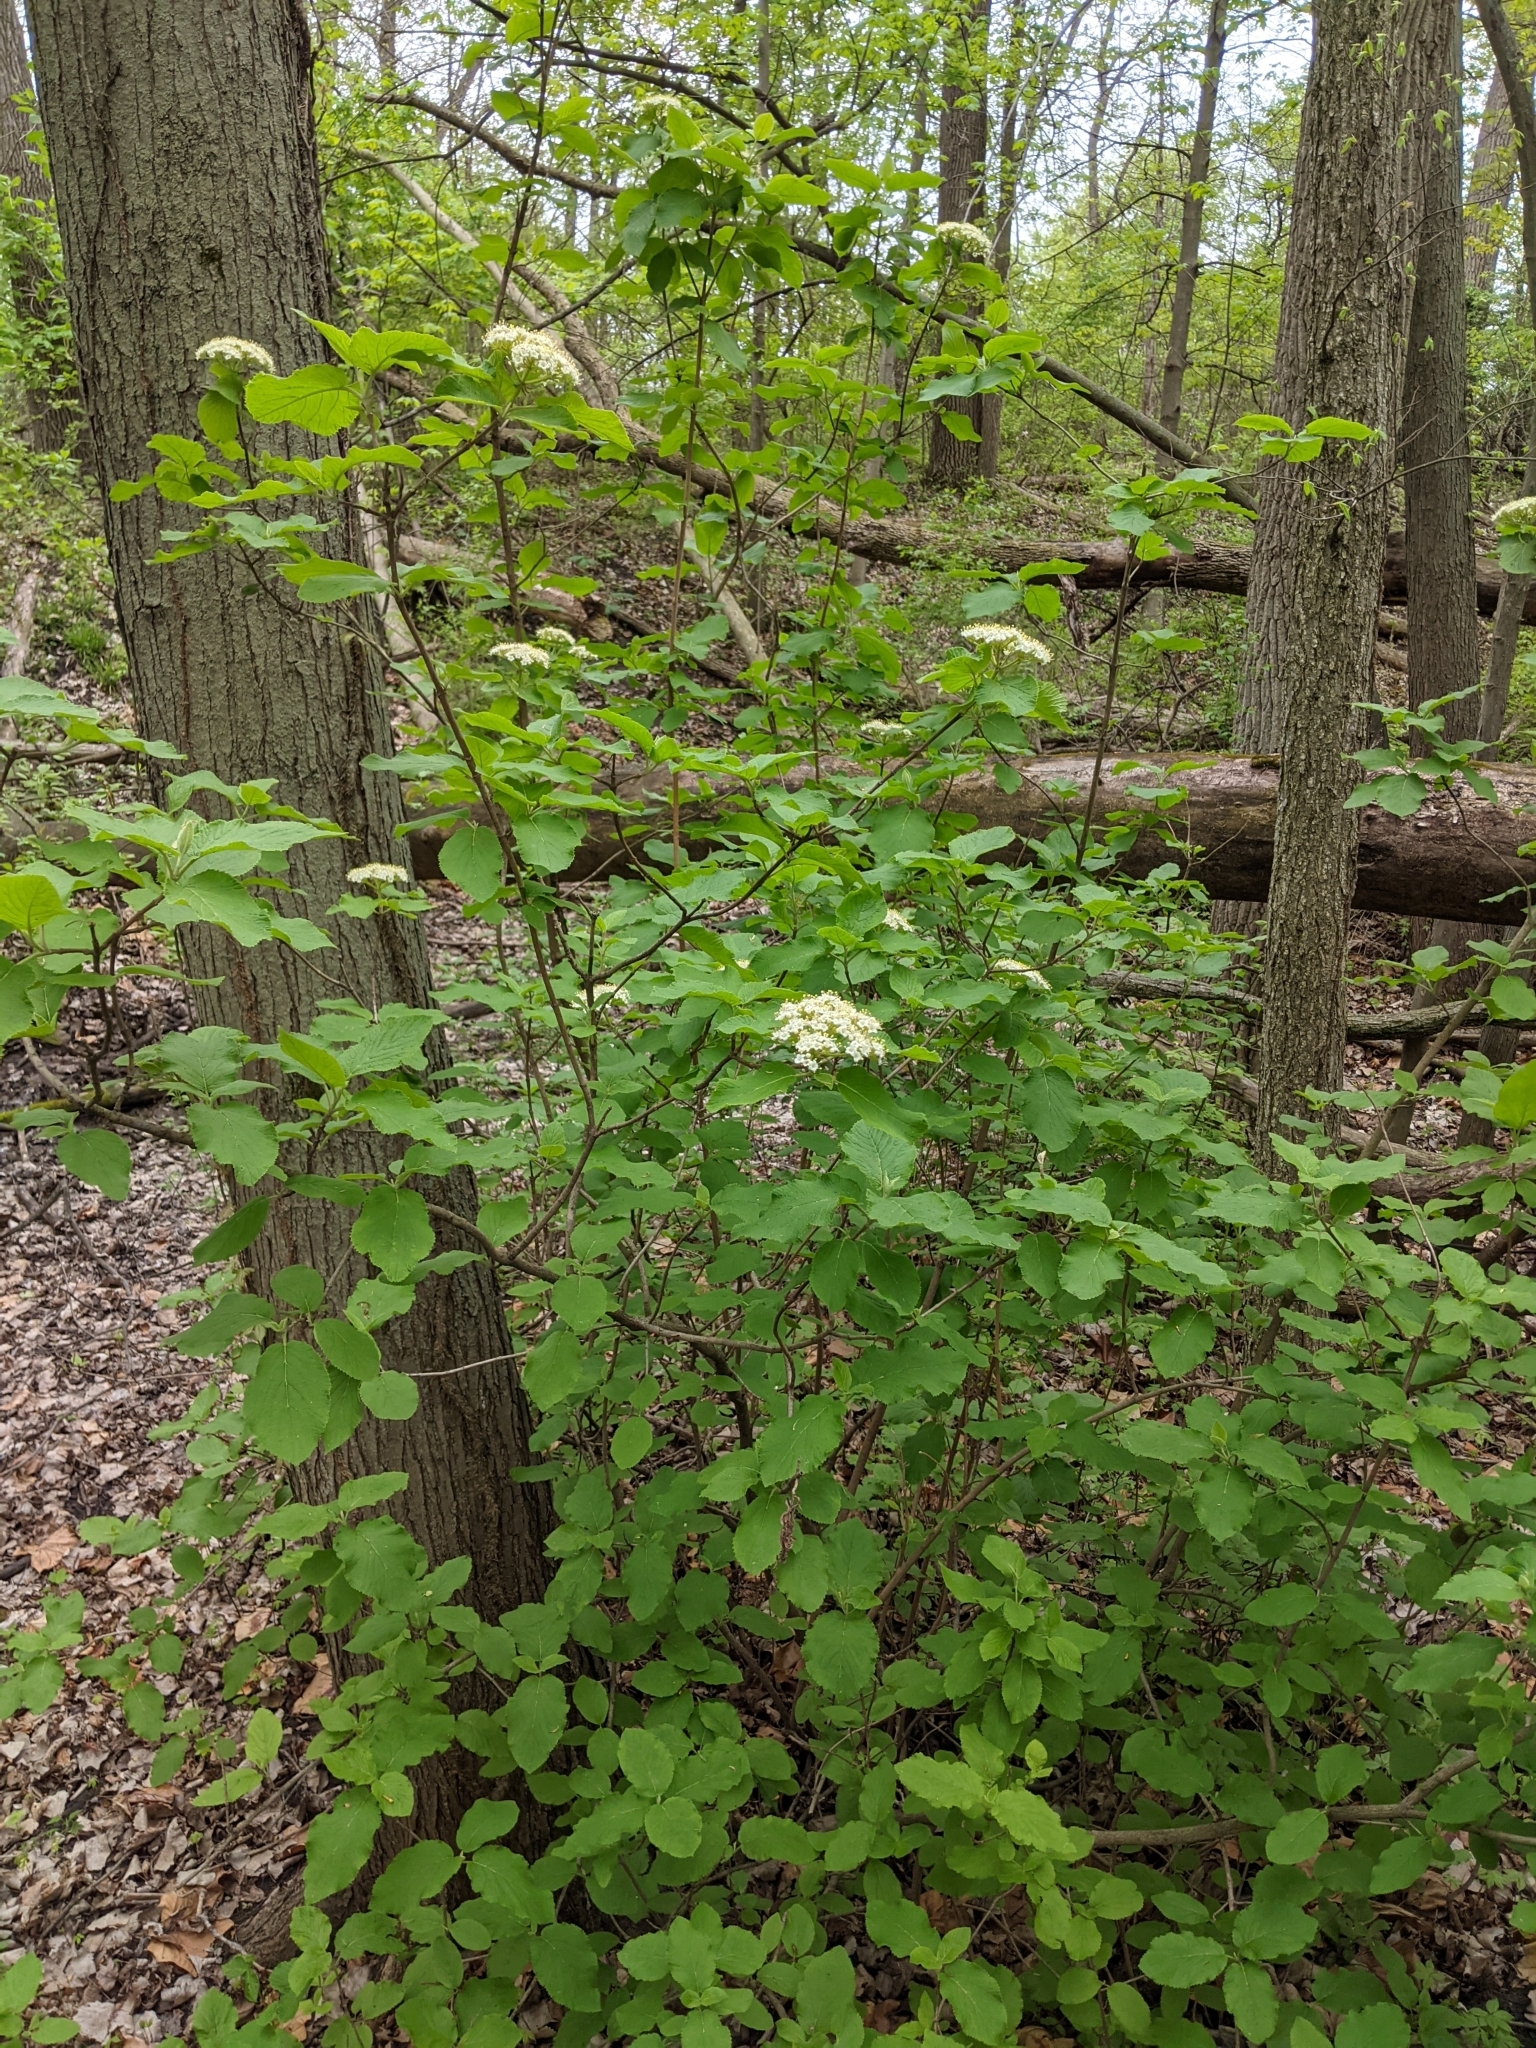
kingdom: Plantae
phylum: Tracheophyta
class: Magnoliopsida
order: Dipsacales
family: Viburnaceae
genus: Viburnum
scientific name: Viburnum lantana
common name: Wayfaring tree
